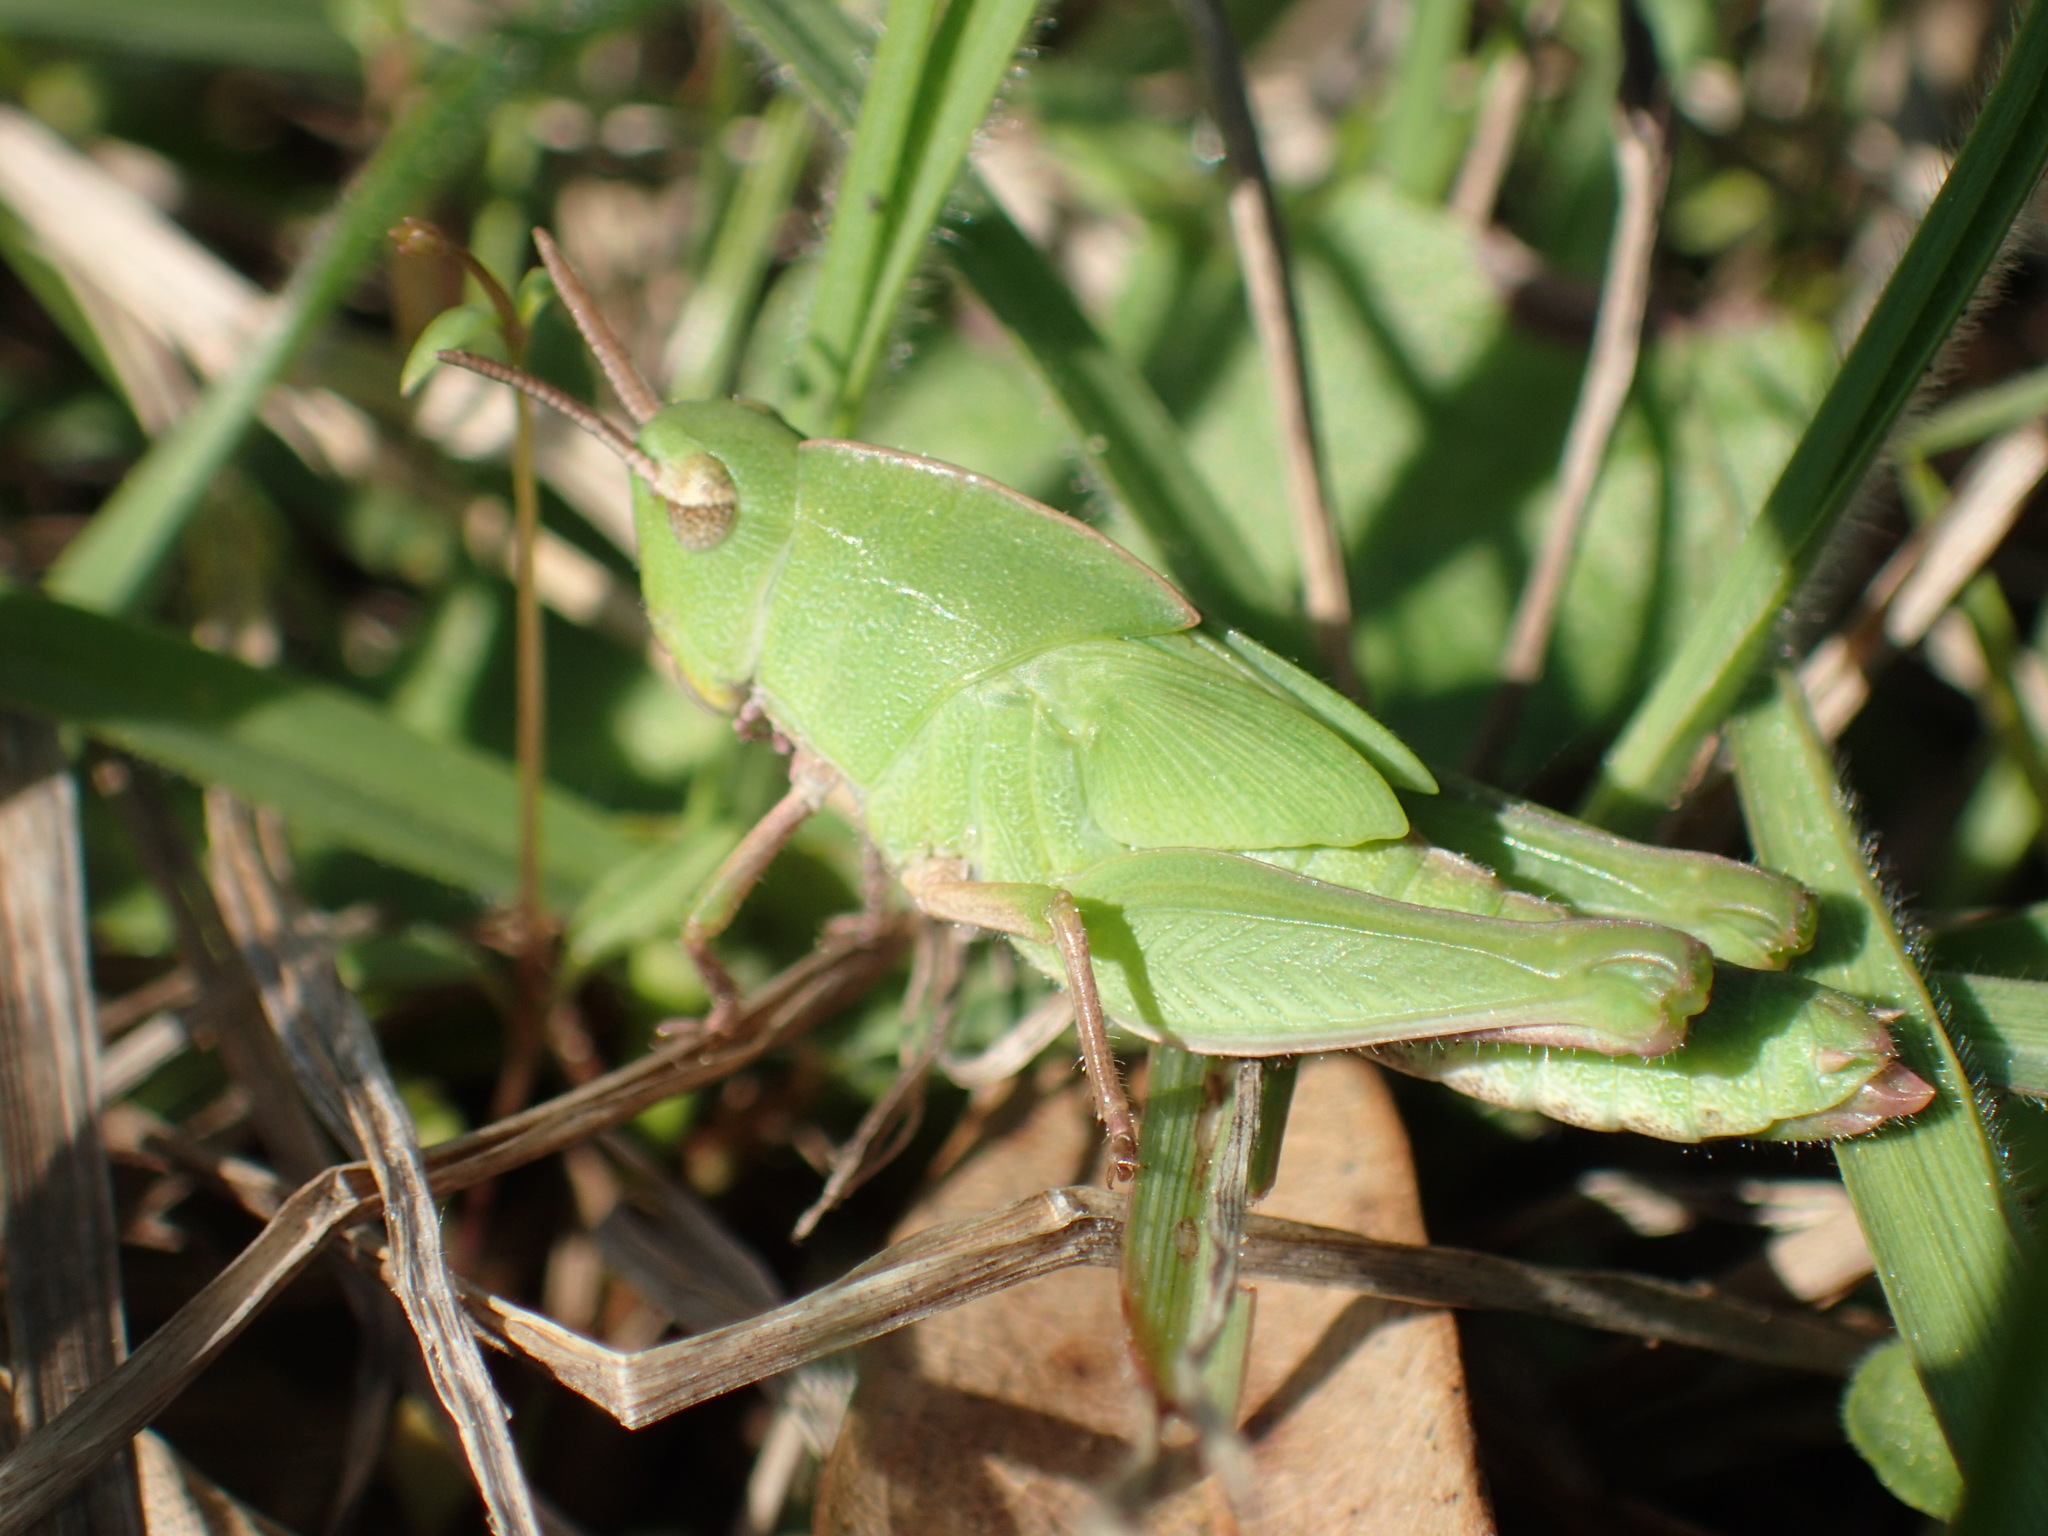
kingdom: Animalia
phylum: Arthropoda
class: Insecta
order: Orthoptera
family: Acrididae
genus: Chortophaga
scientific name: Chortophaga viridifasciata
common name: Green-striped grasshopper
